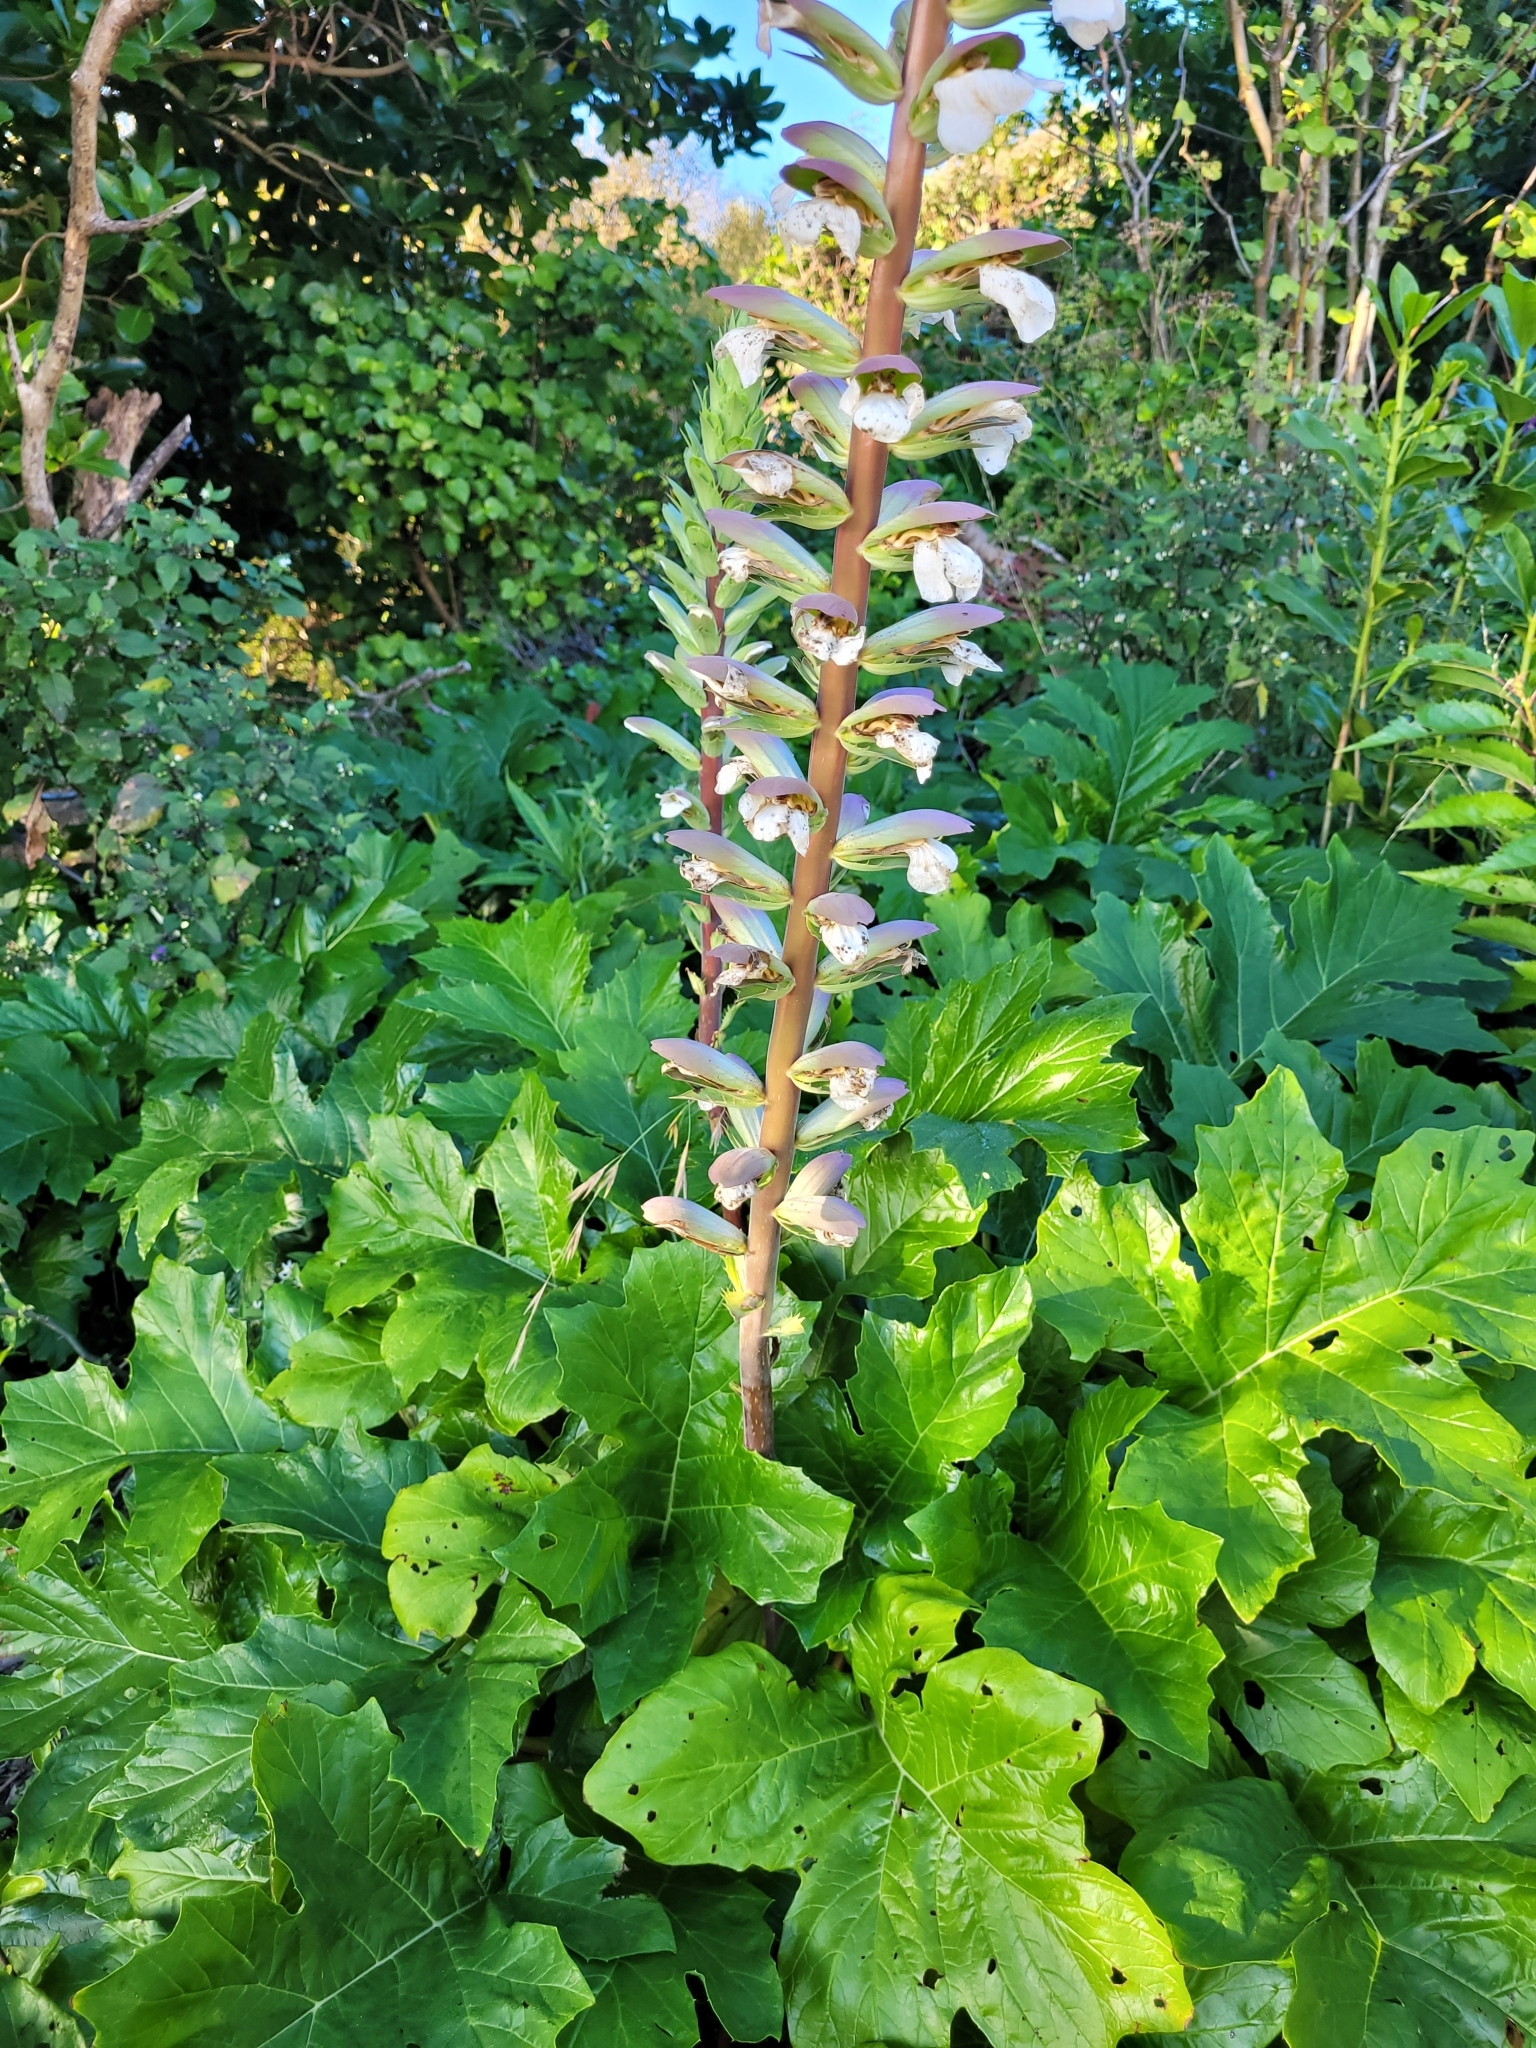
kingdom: Plantae
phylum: Tracheophyta
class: Magnoliopsida
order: Lamiales
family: Acanthaceae
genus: Acanthus
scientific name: Acanthus mollis
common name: Bear's-breech
